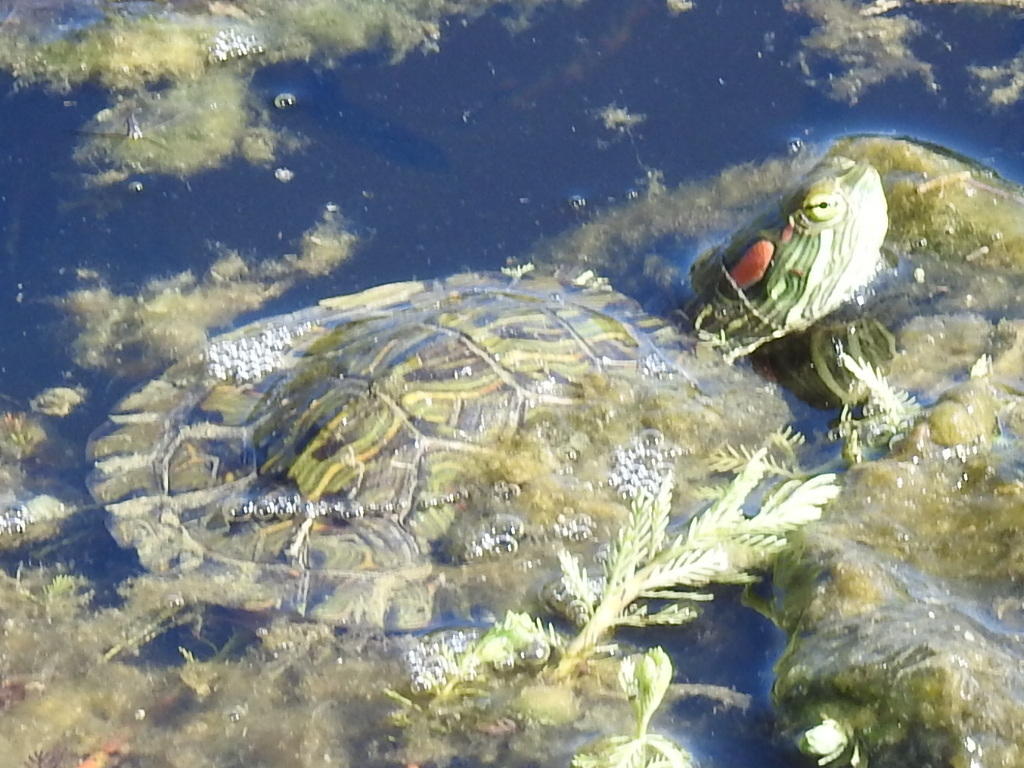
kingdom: Animalia
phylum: Chordata
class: Testudines
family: Emydidae
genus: Trachemys
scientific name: Trachemys scripta
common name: Slider
